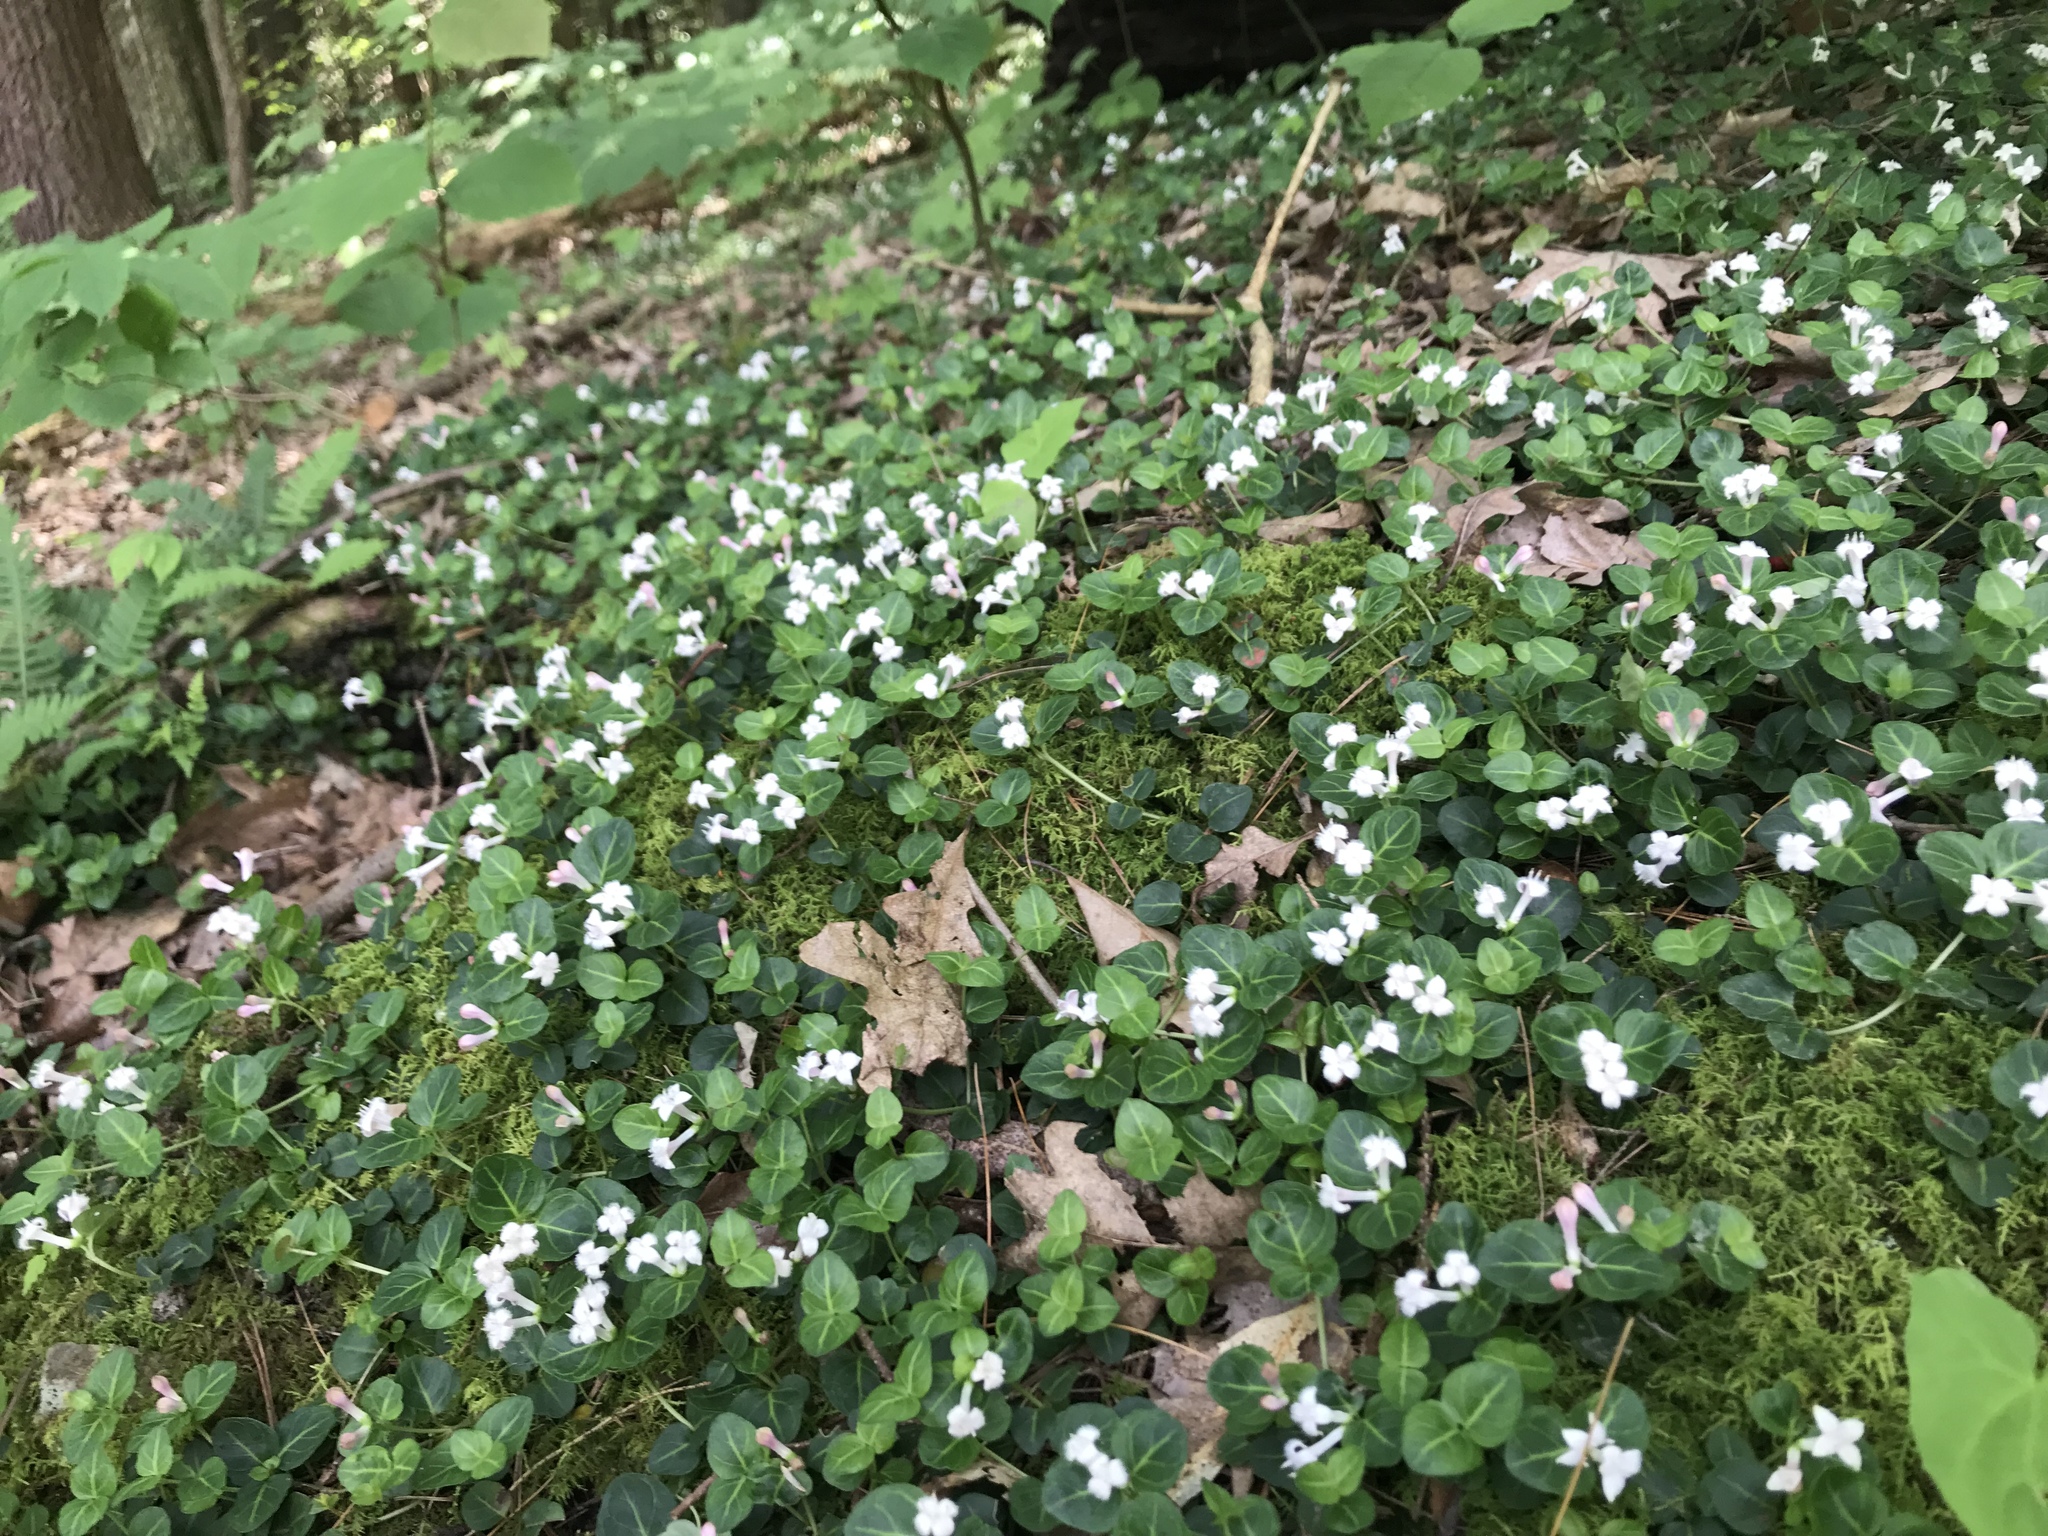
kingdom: Plantae
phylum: Tracheophyta
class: Magnoliopsida
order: Gentianales
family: Rubiaceae
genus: Mitchella
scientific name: Mitchella repens
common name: Partridge-berry
